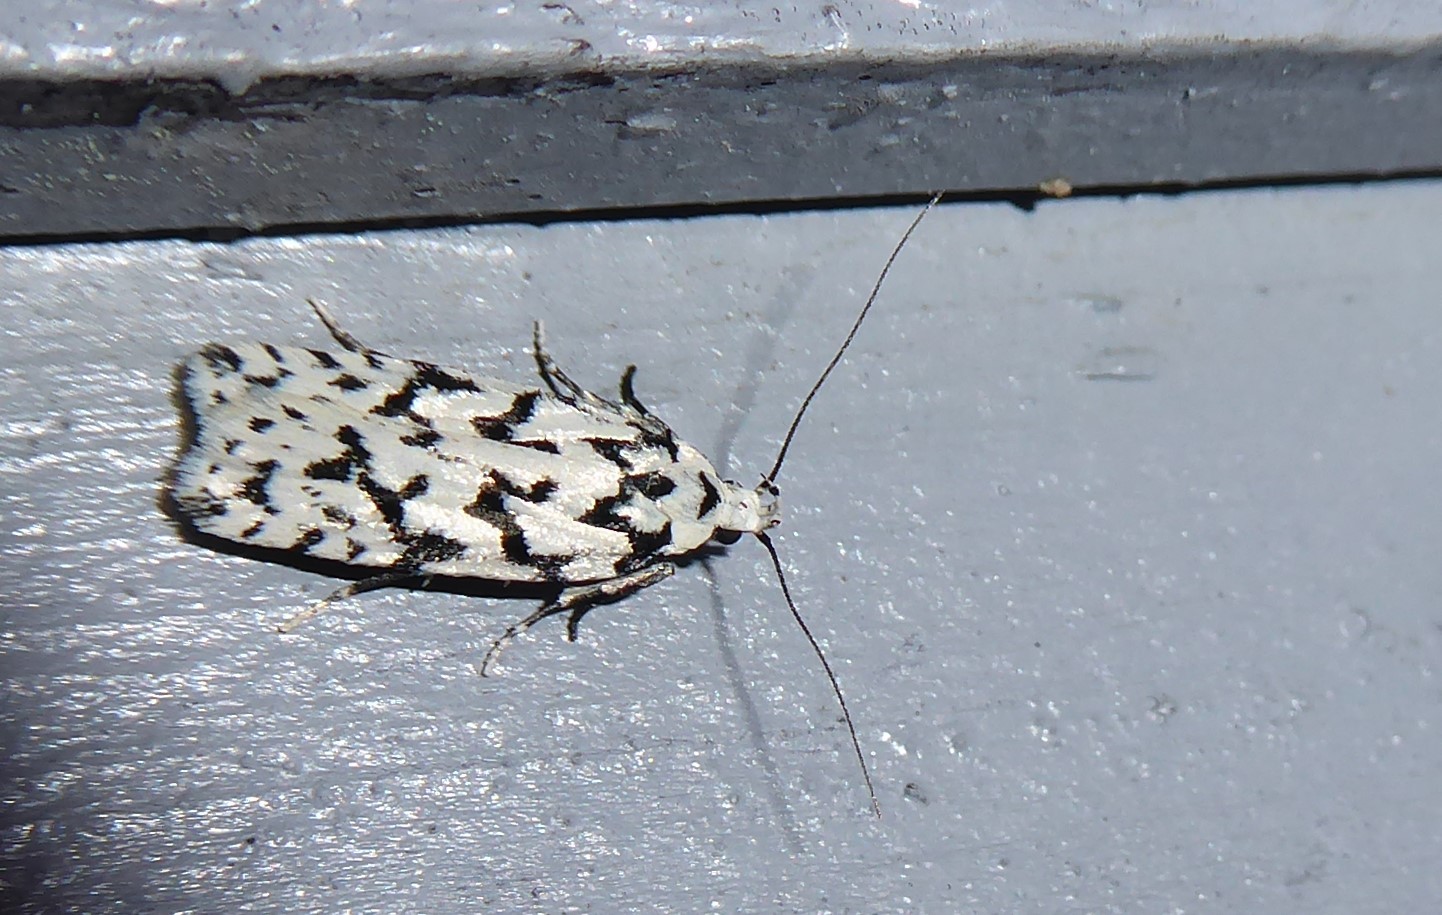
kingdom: Animalia
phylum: Arthropoda
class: Insecta
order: Lepidoptera
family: Oecophoridae
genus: Izatha
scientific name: Izatha katadiktya
